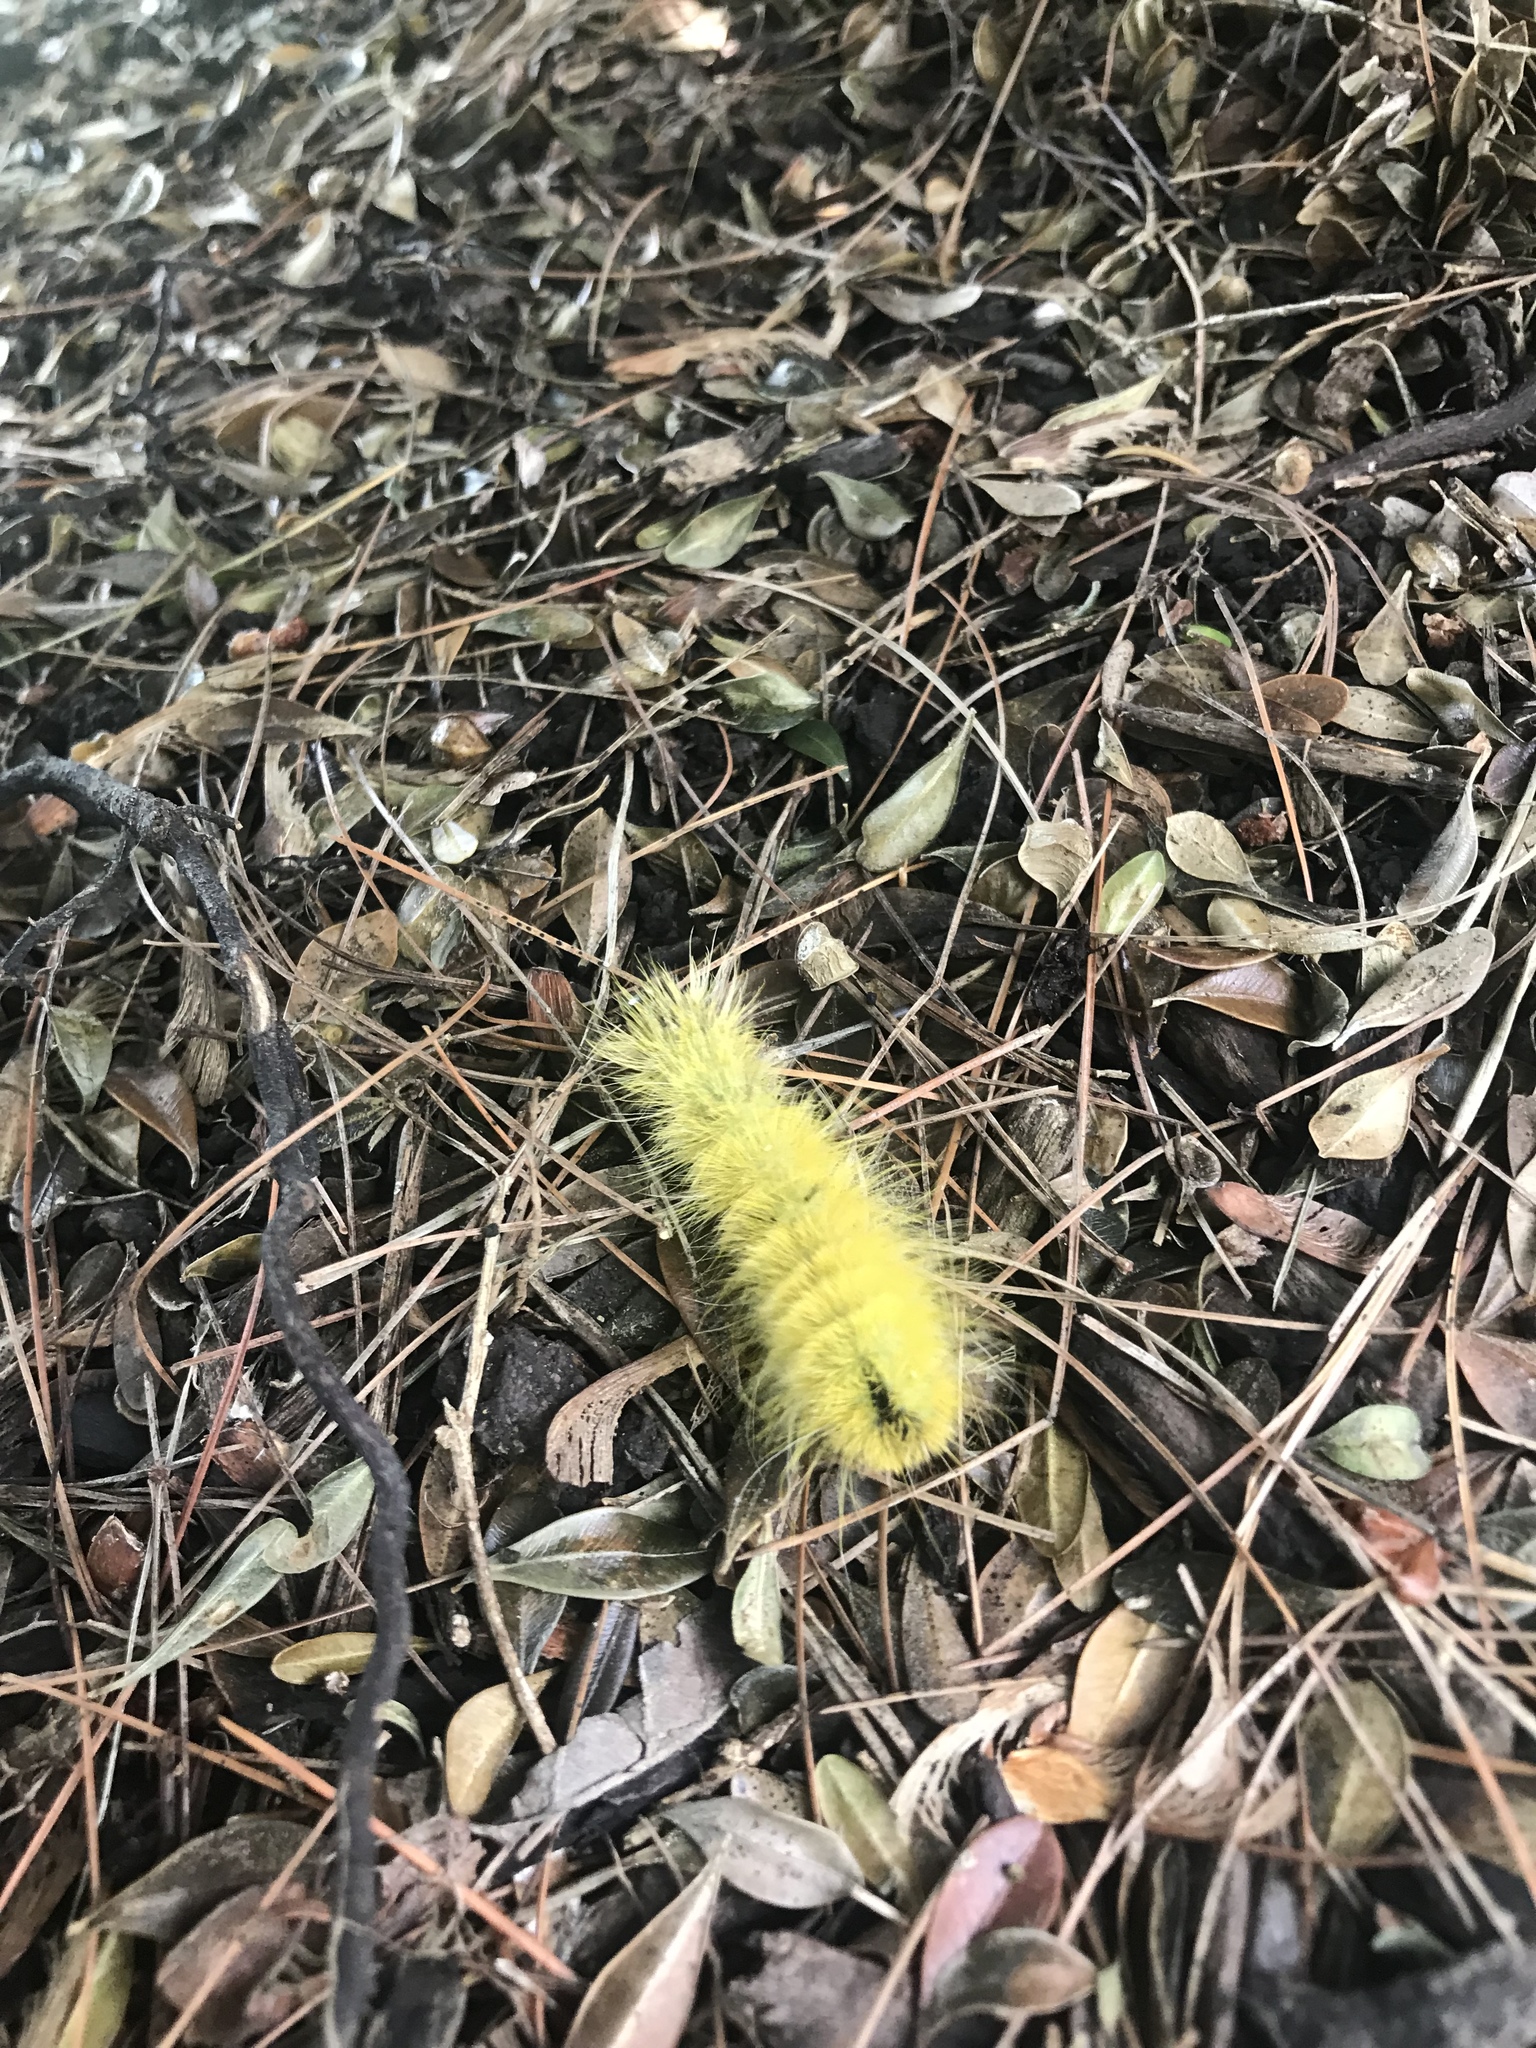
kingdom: Animalia
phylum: Arthropoda
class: Insecta
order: Lepidoptera
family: Noctuidae
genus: Acronicta
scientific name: Acronicta americana
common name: American dagger
